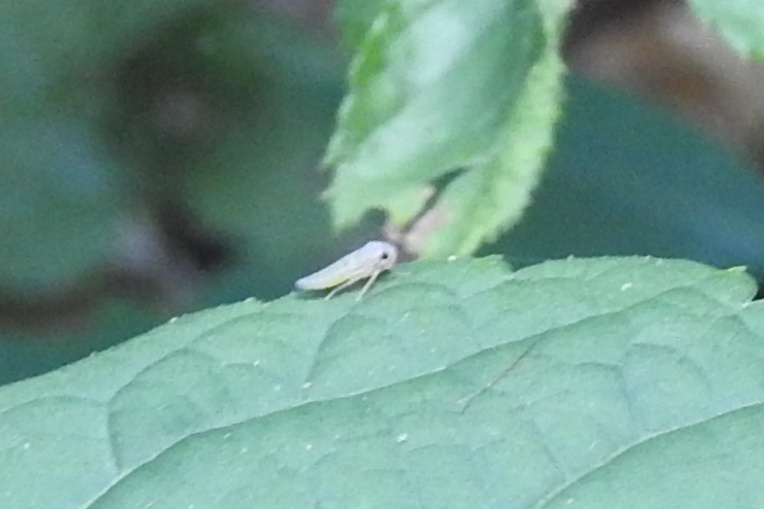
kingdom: Animalia
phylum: Arthropoda
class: Insecta
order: Hemiptera
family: Cicadellidae
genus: Oncometopia
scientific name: Oncometopia orbona
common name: Broad-headed sharpshooter
